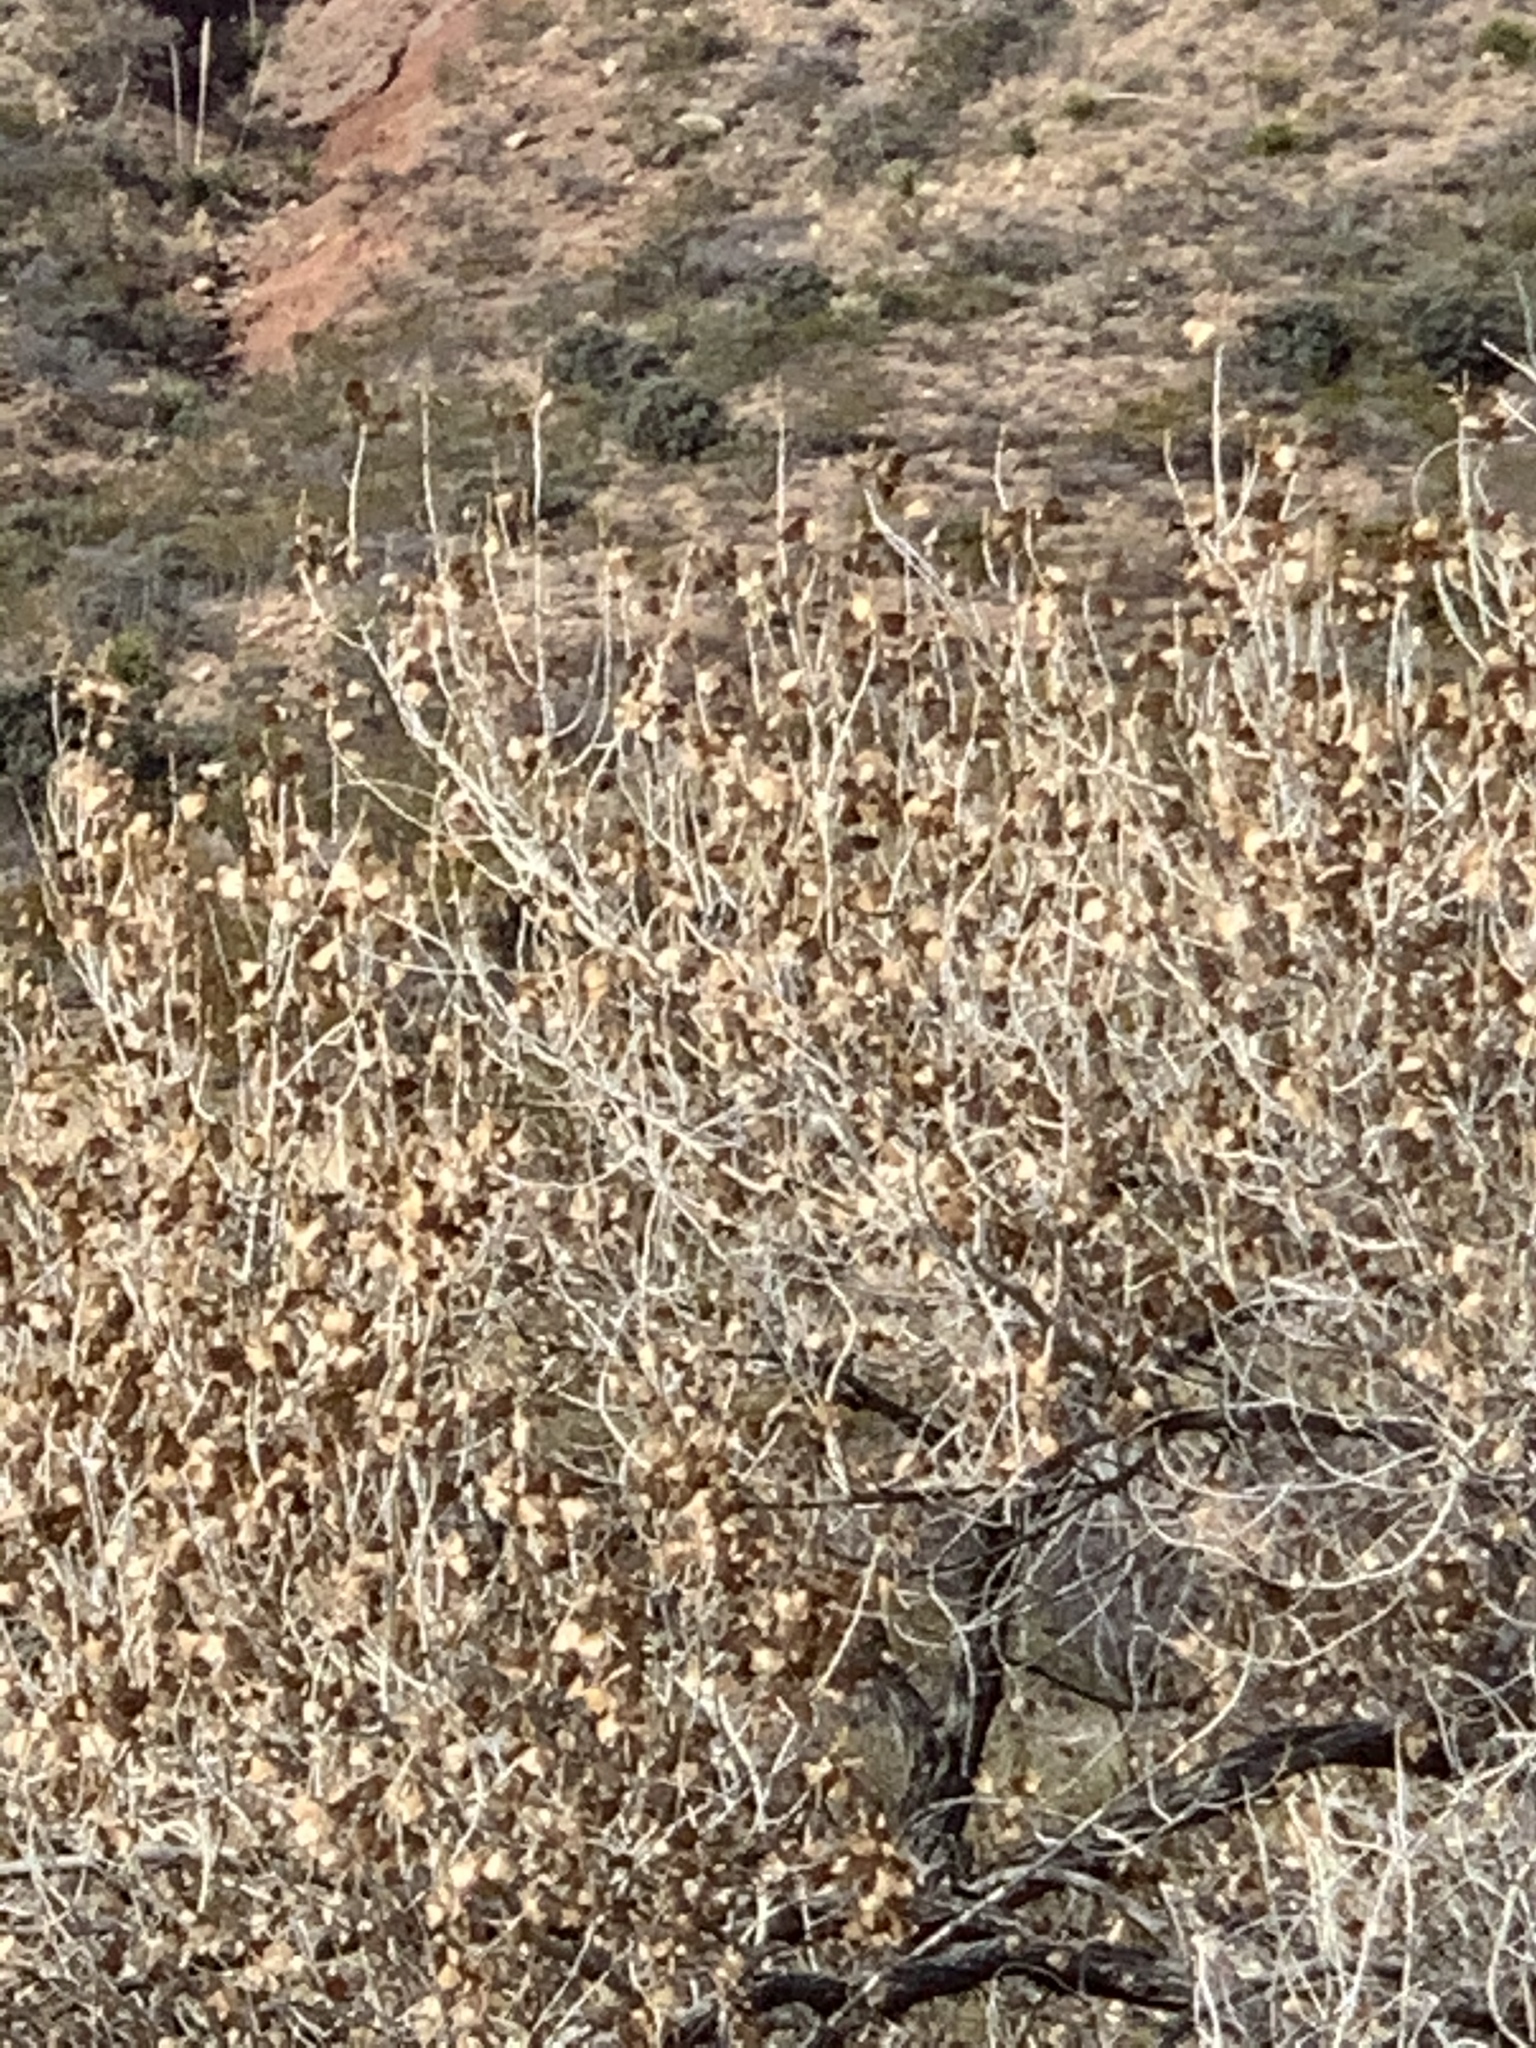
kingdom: Plantae
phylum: Tracheophyta
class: Magnoliopsida
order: Malpighiales
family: Salicaceae
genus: Populus
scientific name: Populus fremontii
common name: Fremont's cottonwood
